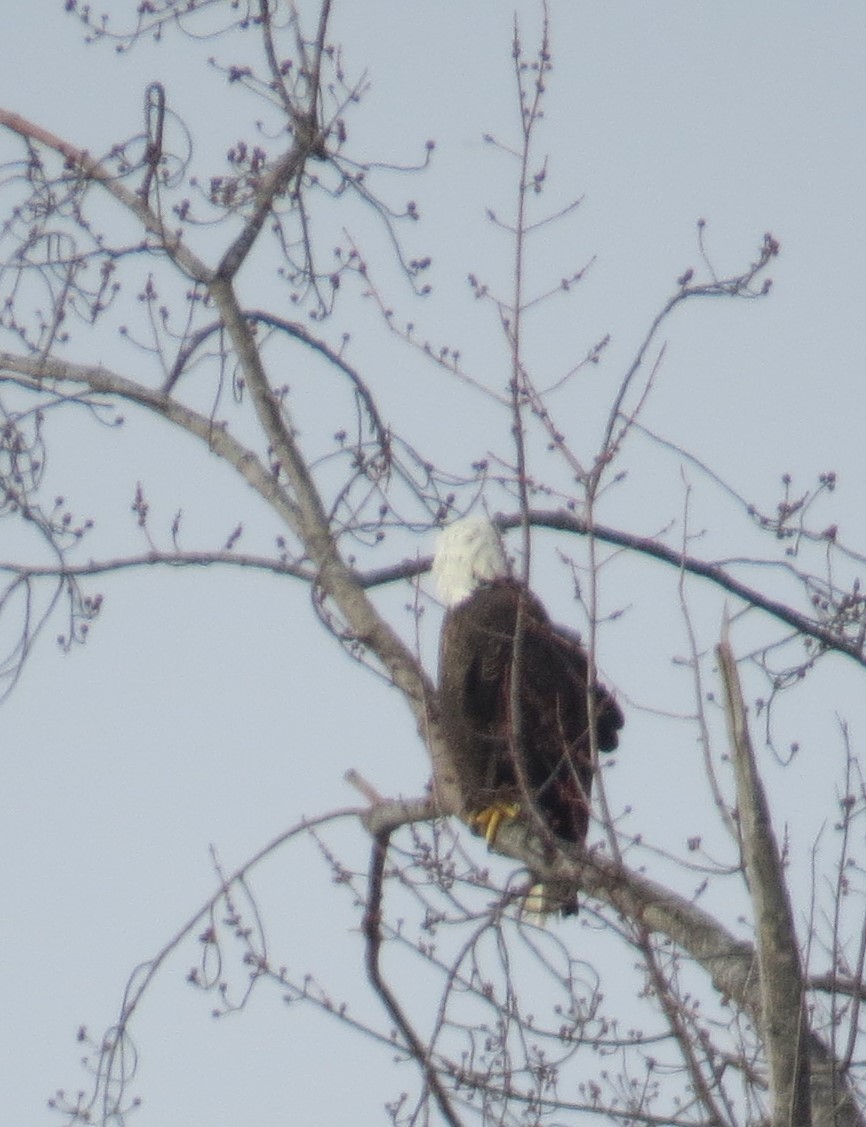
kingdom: Animalia
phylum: Chordata
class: Aves
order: Accipitriformes
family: Accipitridae
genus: Haliaeetus
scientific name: Haliaeetus leucocephalus
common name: Bald eagle
